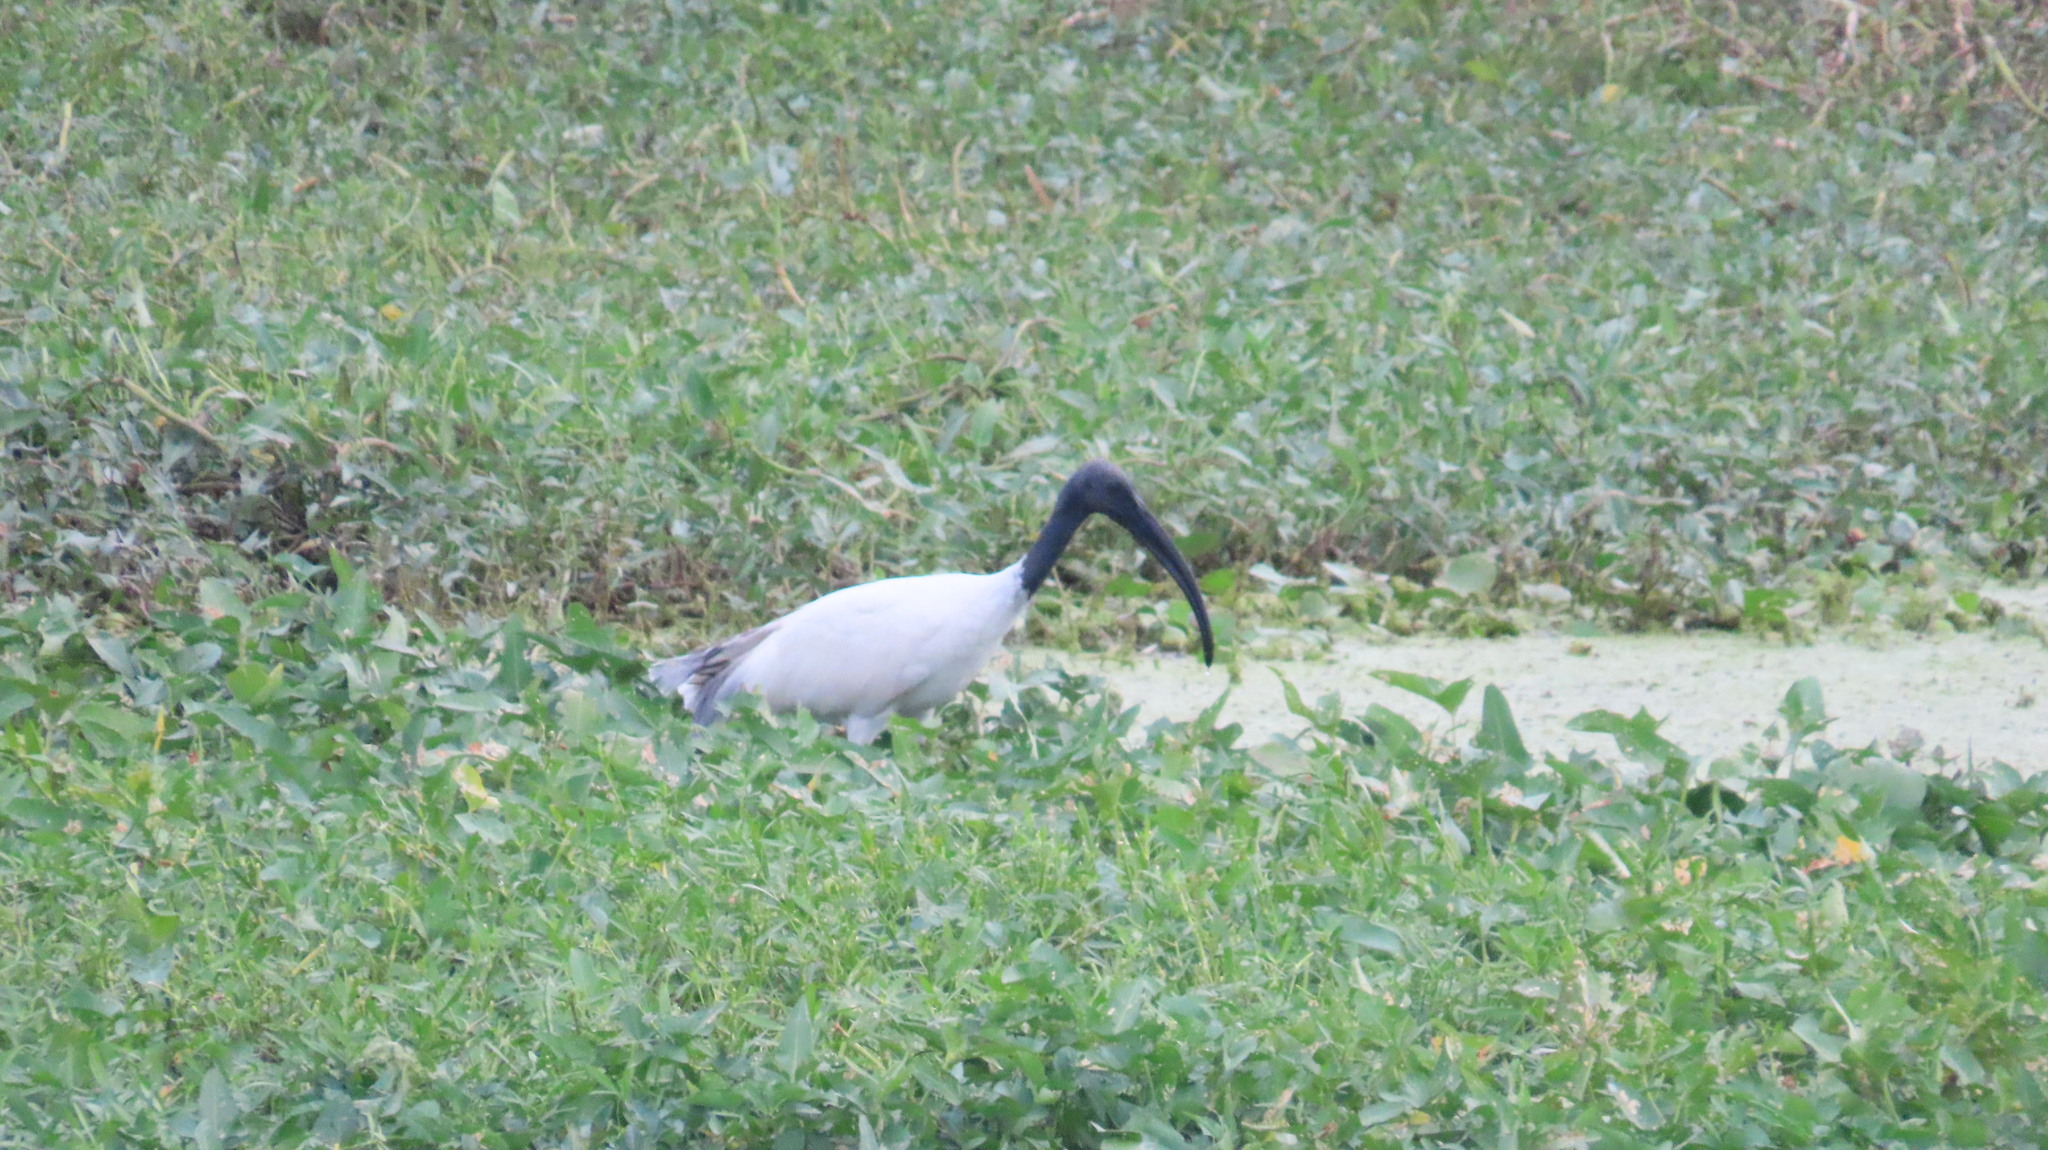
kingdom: Animalia
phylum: Chordata
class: Aves
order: Pelecaniformes
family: Threskiornithidae
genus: Threskiornis
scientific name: Threskiornis melanocephalus
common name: Black-headed ibis
